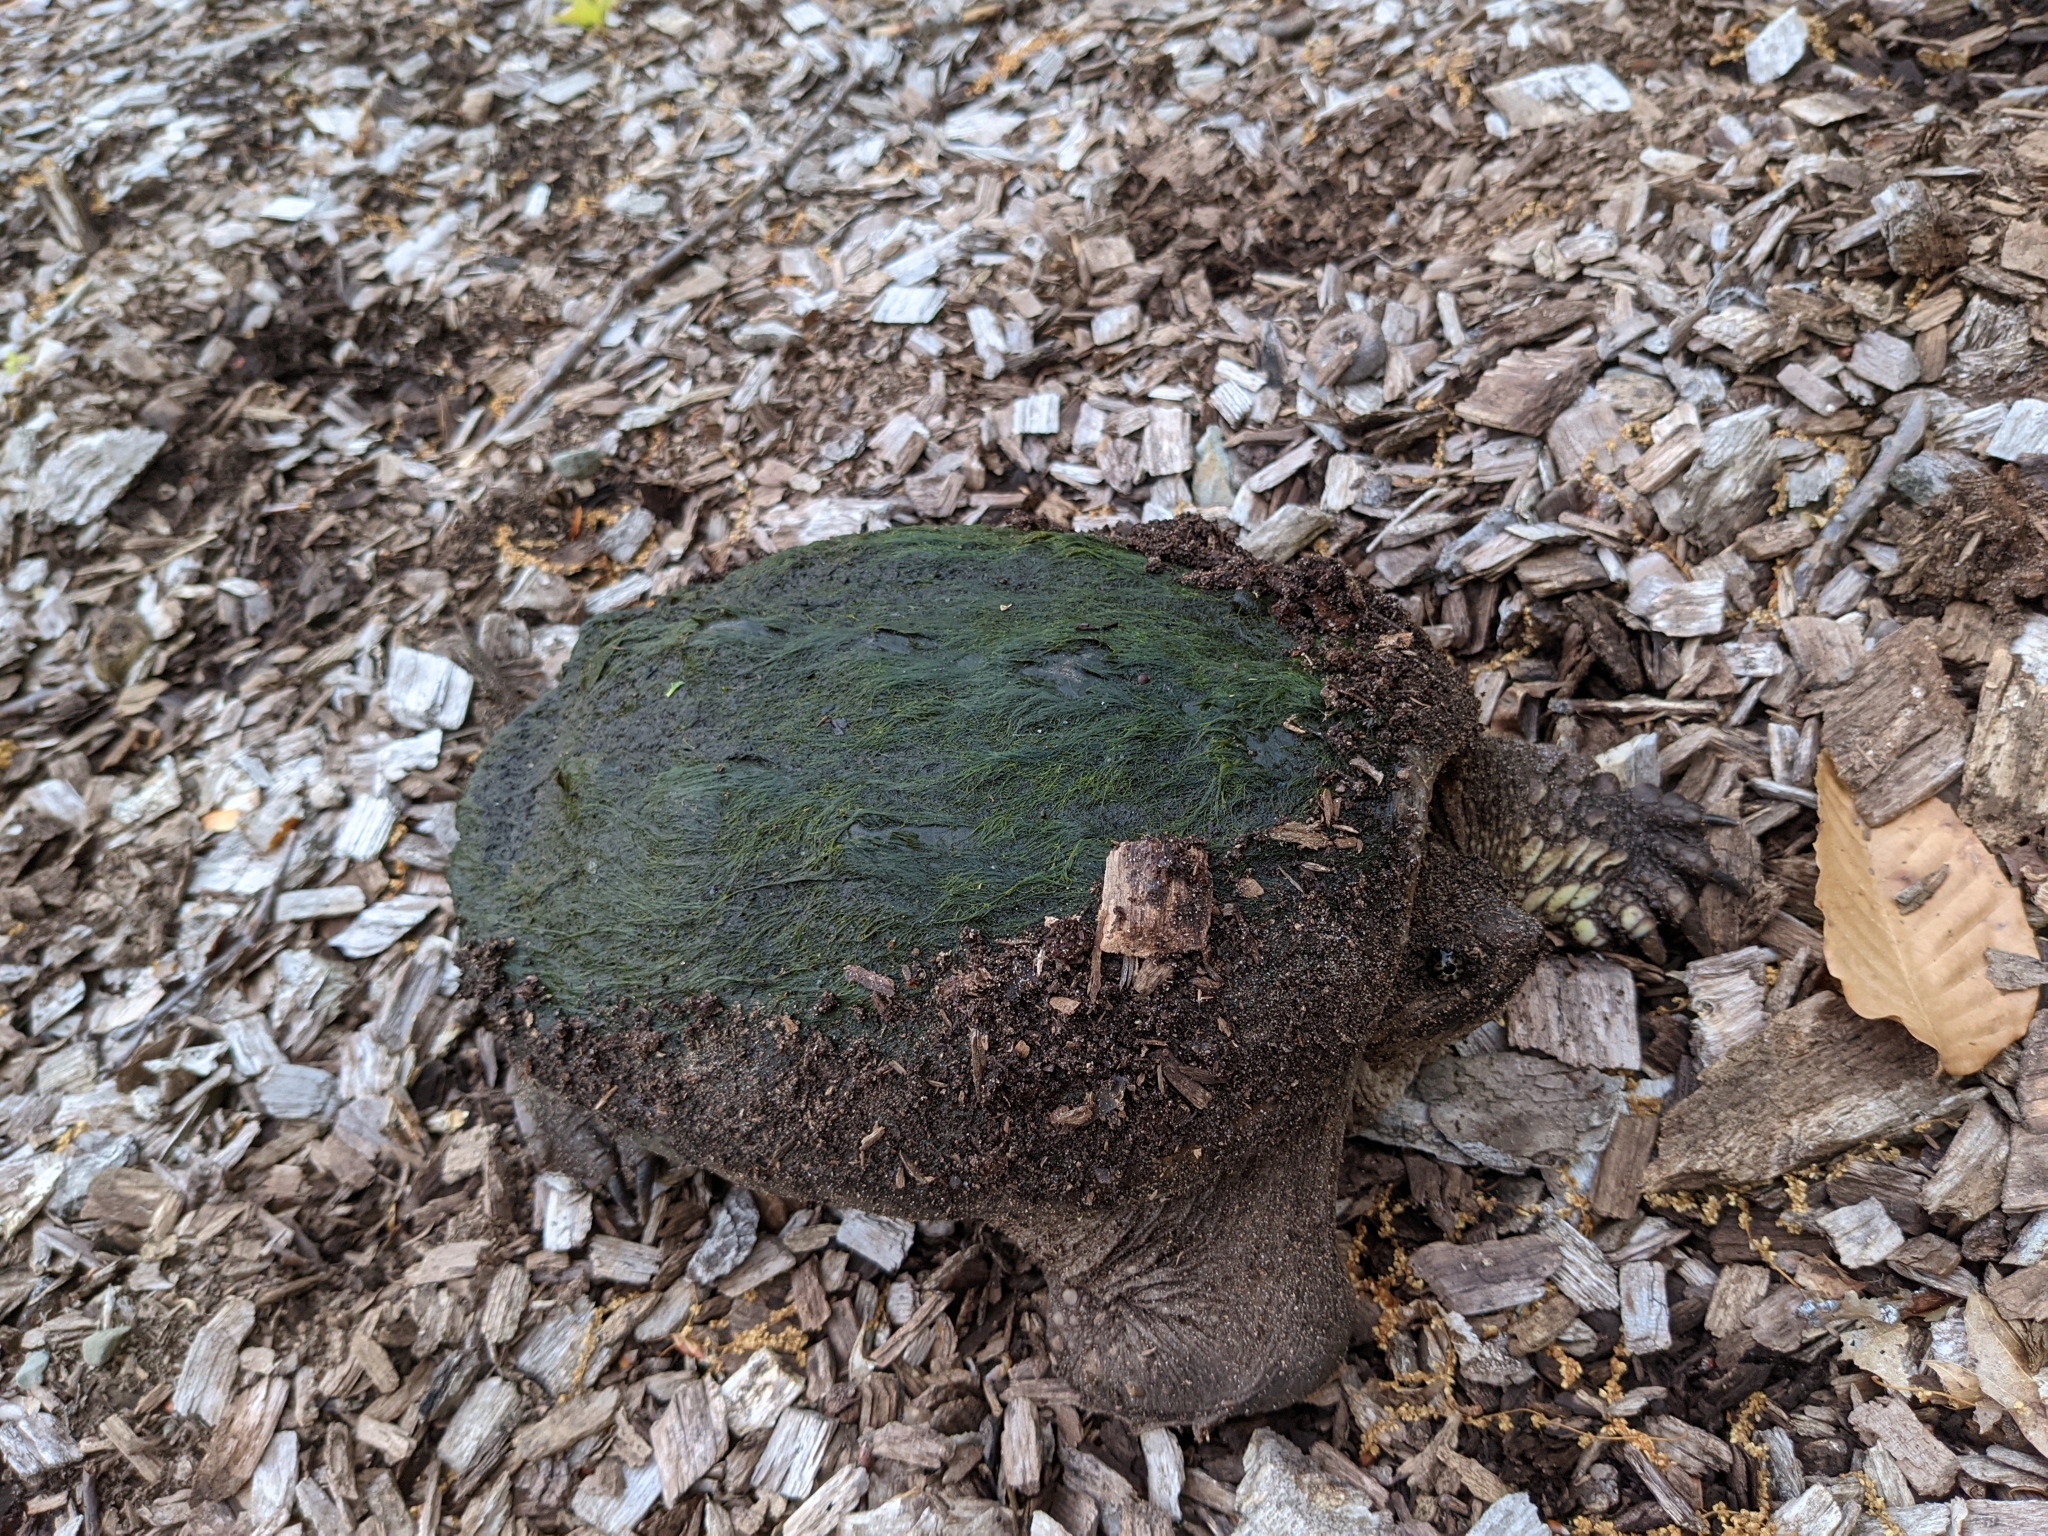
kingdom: Animalia
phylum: Chordata
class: Testudines
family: Chelydridae
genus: Chelydra
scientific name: Chelydra serpentina
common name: Common snapping turtle
